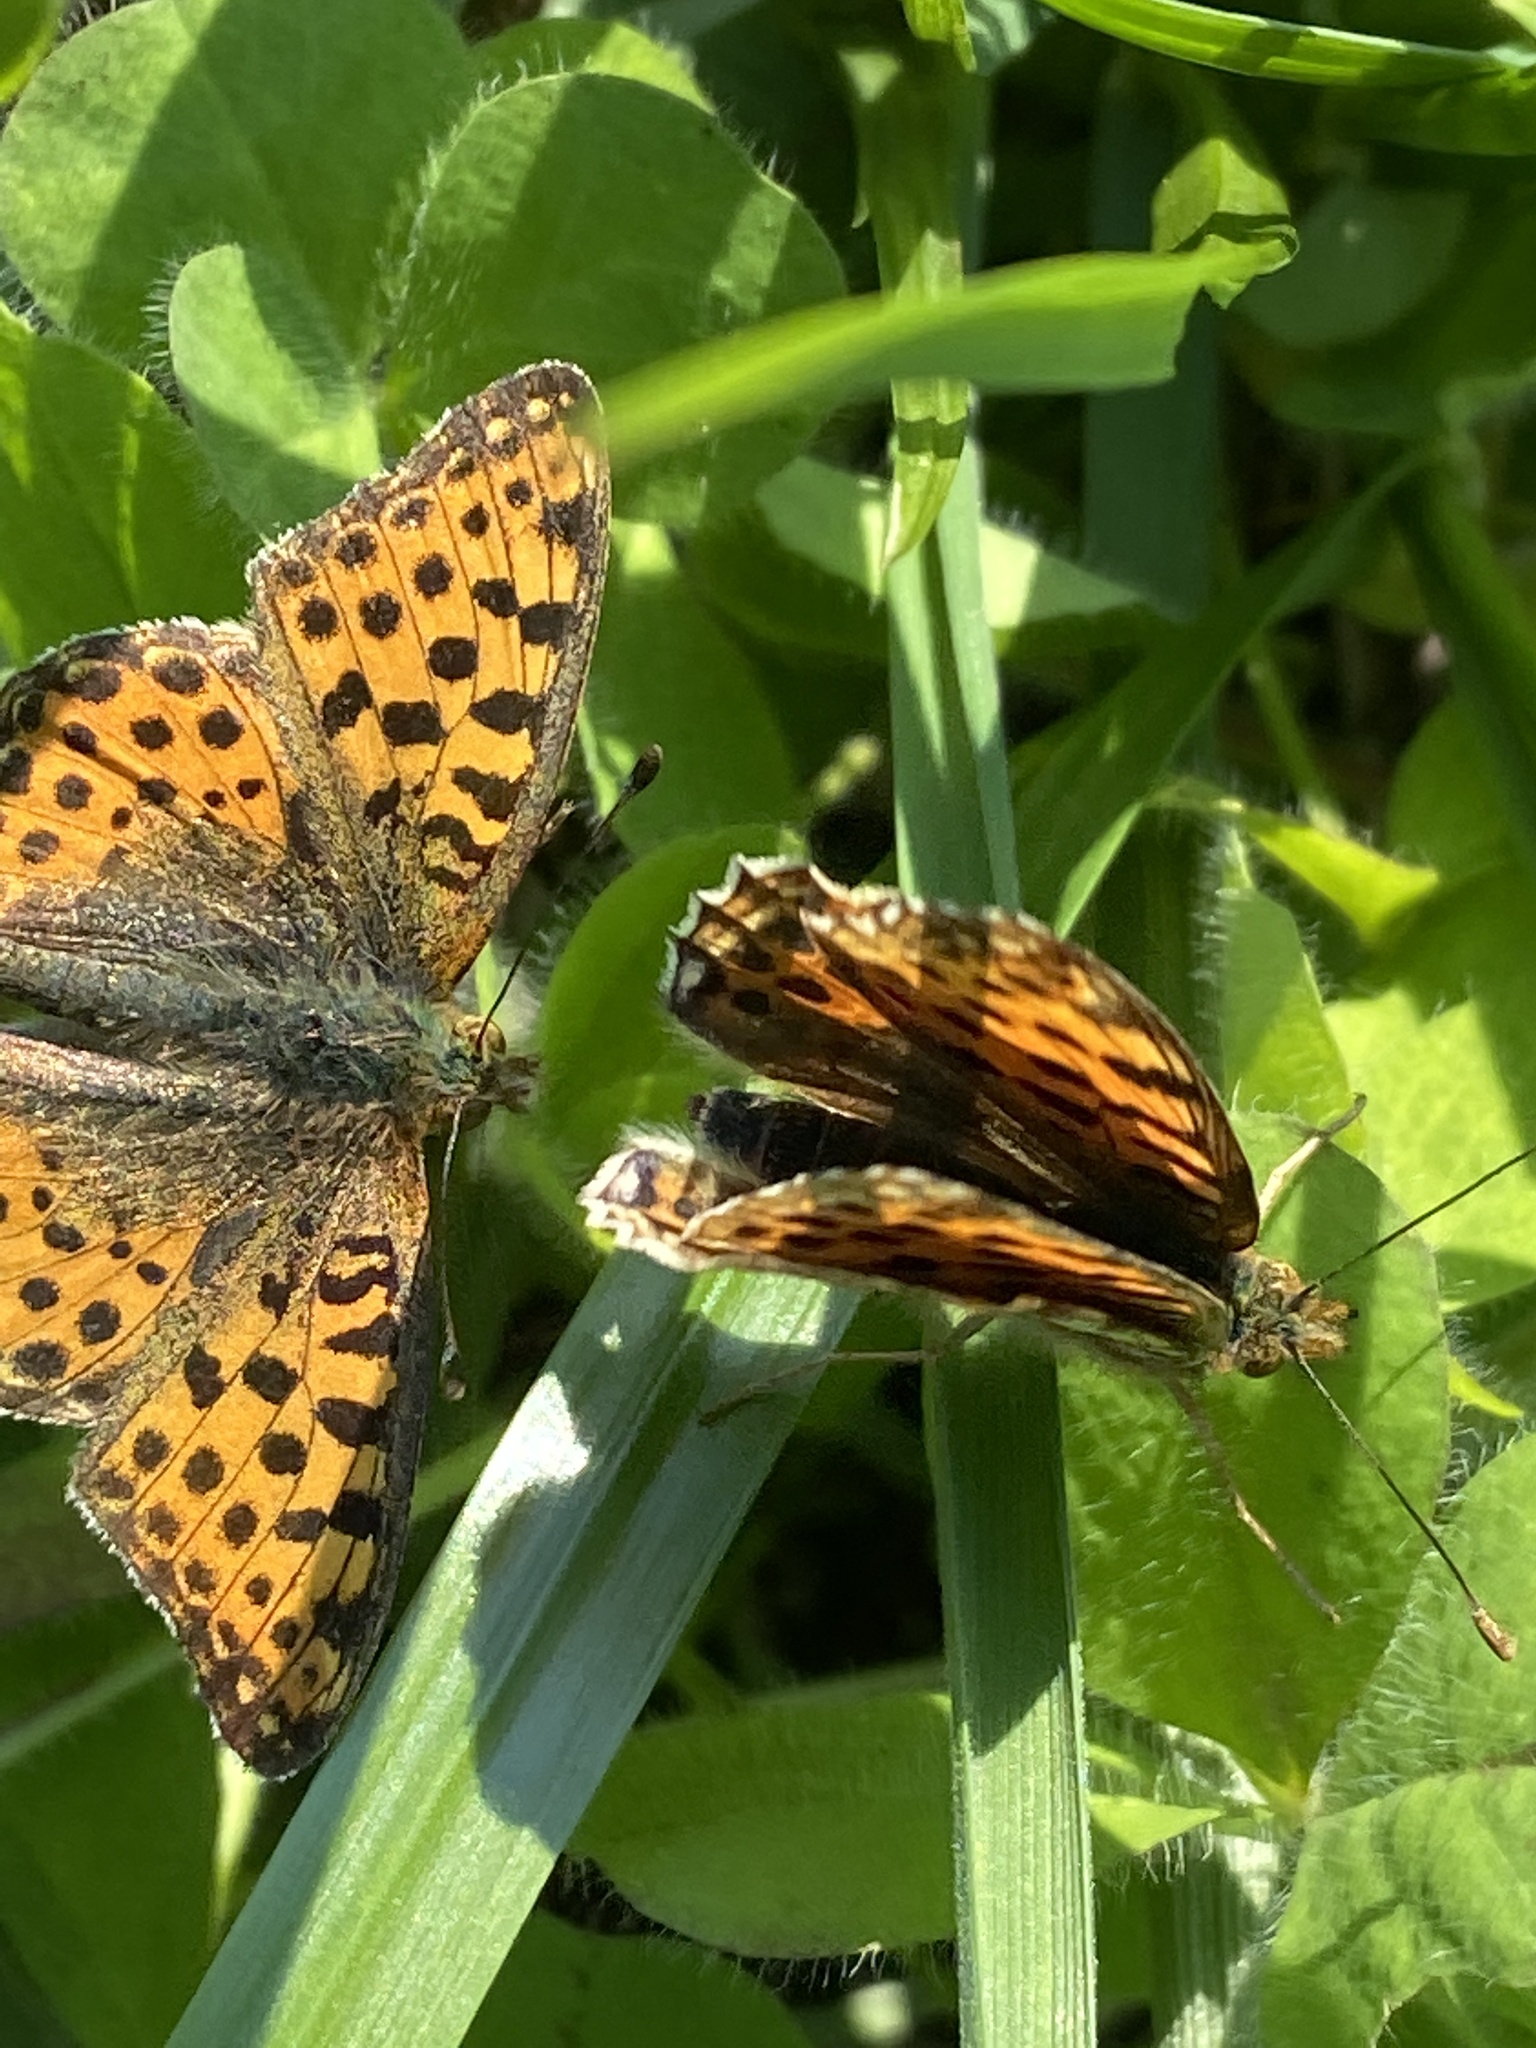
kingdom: Animalia
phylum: Arthropoda
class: Insecta
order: Lepidoptera
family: Nymphalidae
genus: Issoria
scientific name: Issoria lathonia
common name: Queen of spain fritillary
